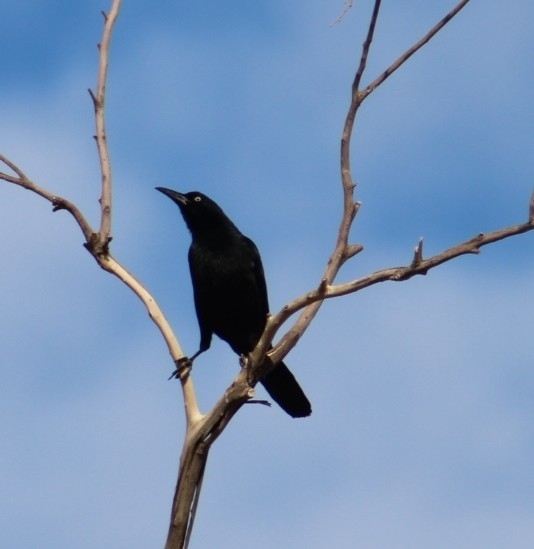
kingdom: Animalia
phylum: Chordata
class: Aves
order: Passeriformes
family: Icteridae
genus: Quiscalus
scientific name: Quiscalus mexicanus
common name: Great-tailed grackle
